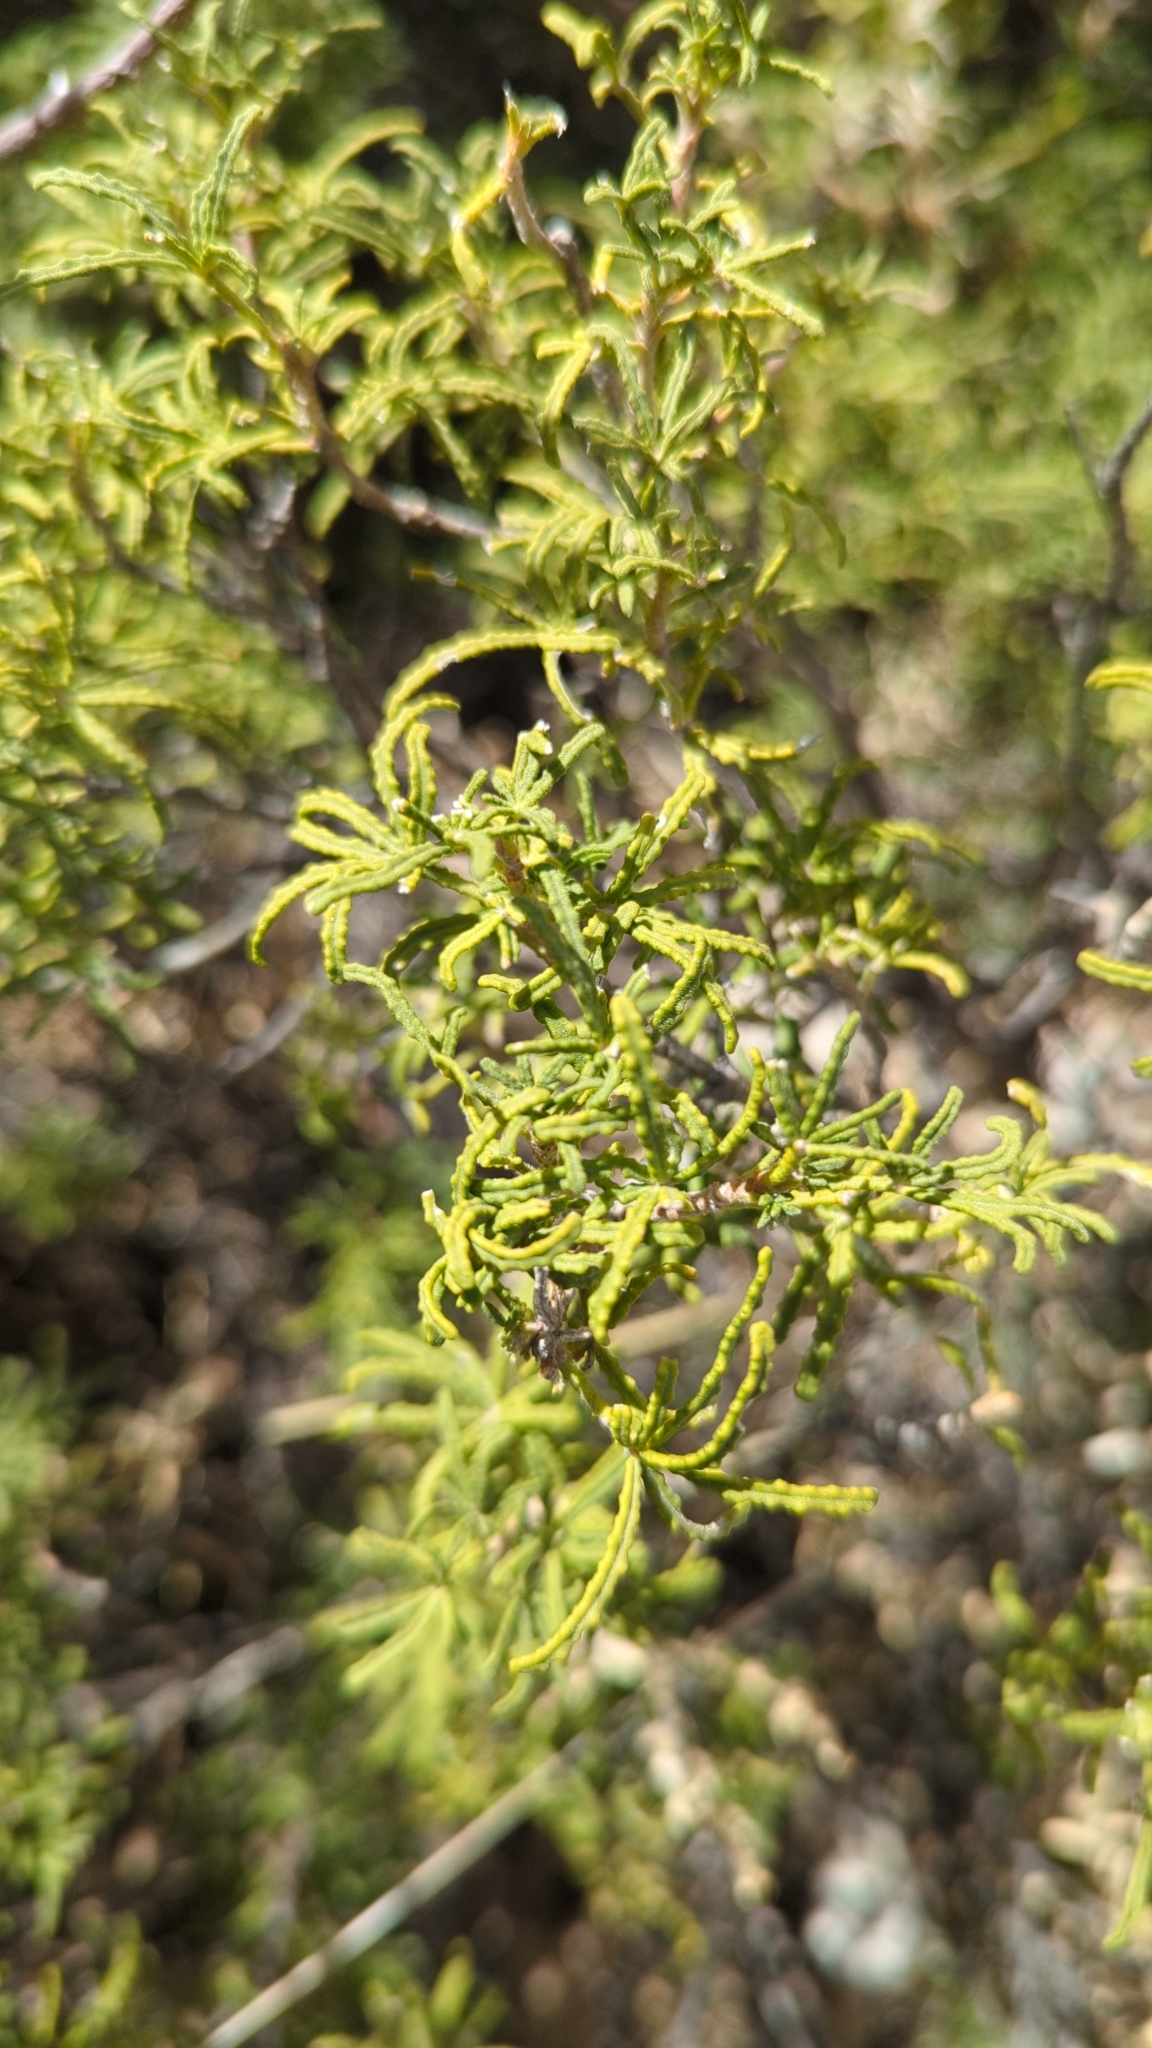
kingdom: Plantae
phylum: Tracheophyta
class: Magnoliopsida
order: Sapindales
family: Rutaceae
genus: Choisya
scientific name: Choisya dumosa
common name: Mexican-orange
